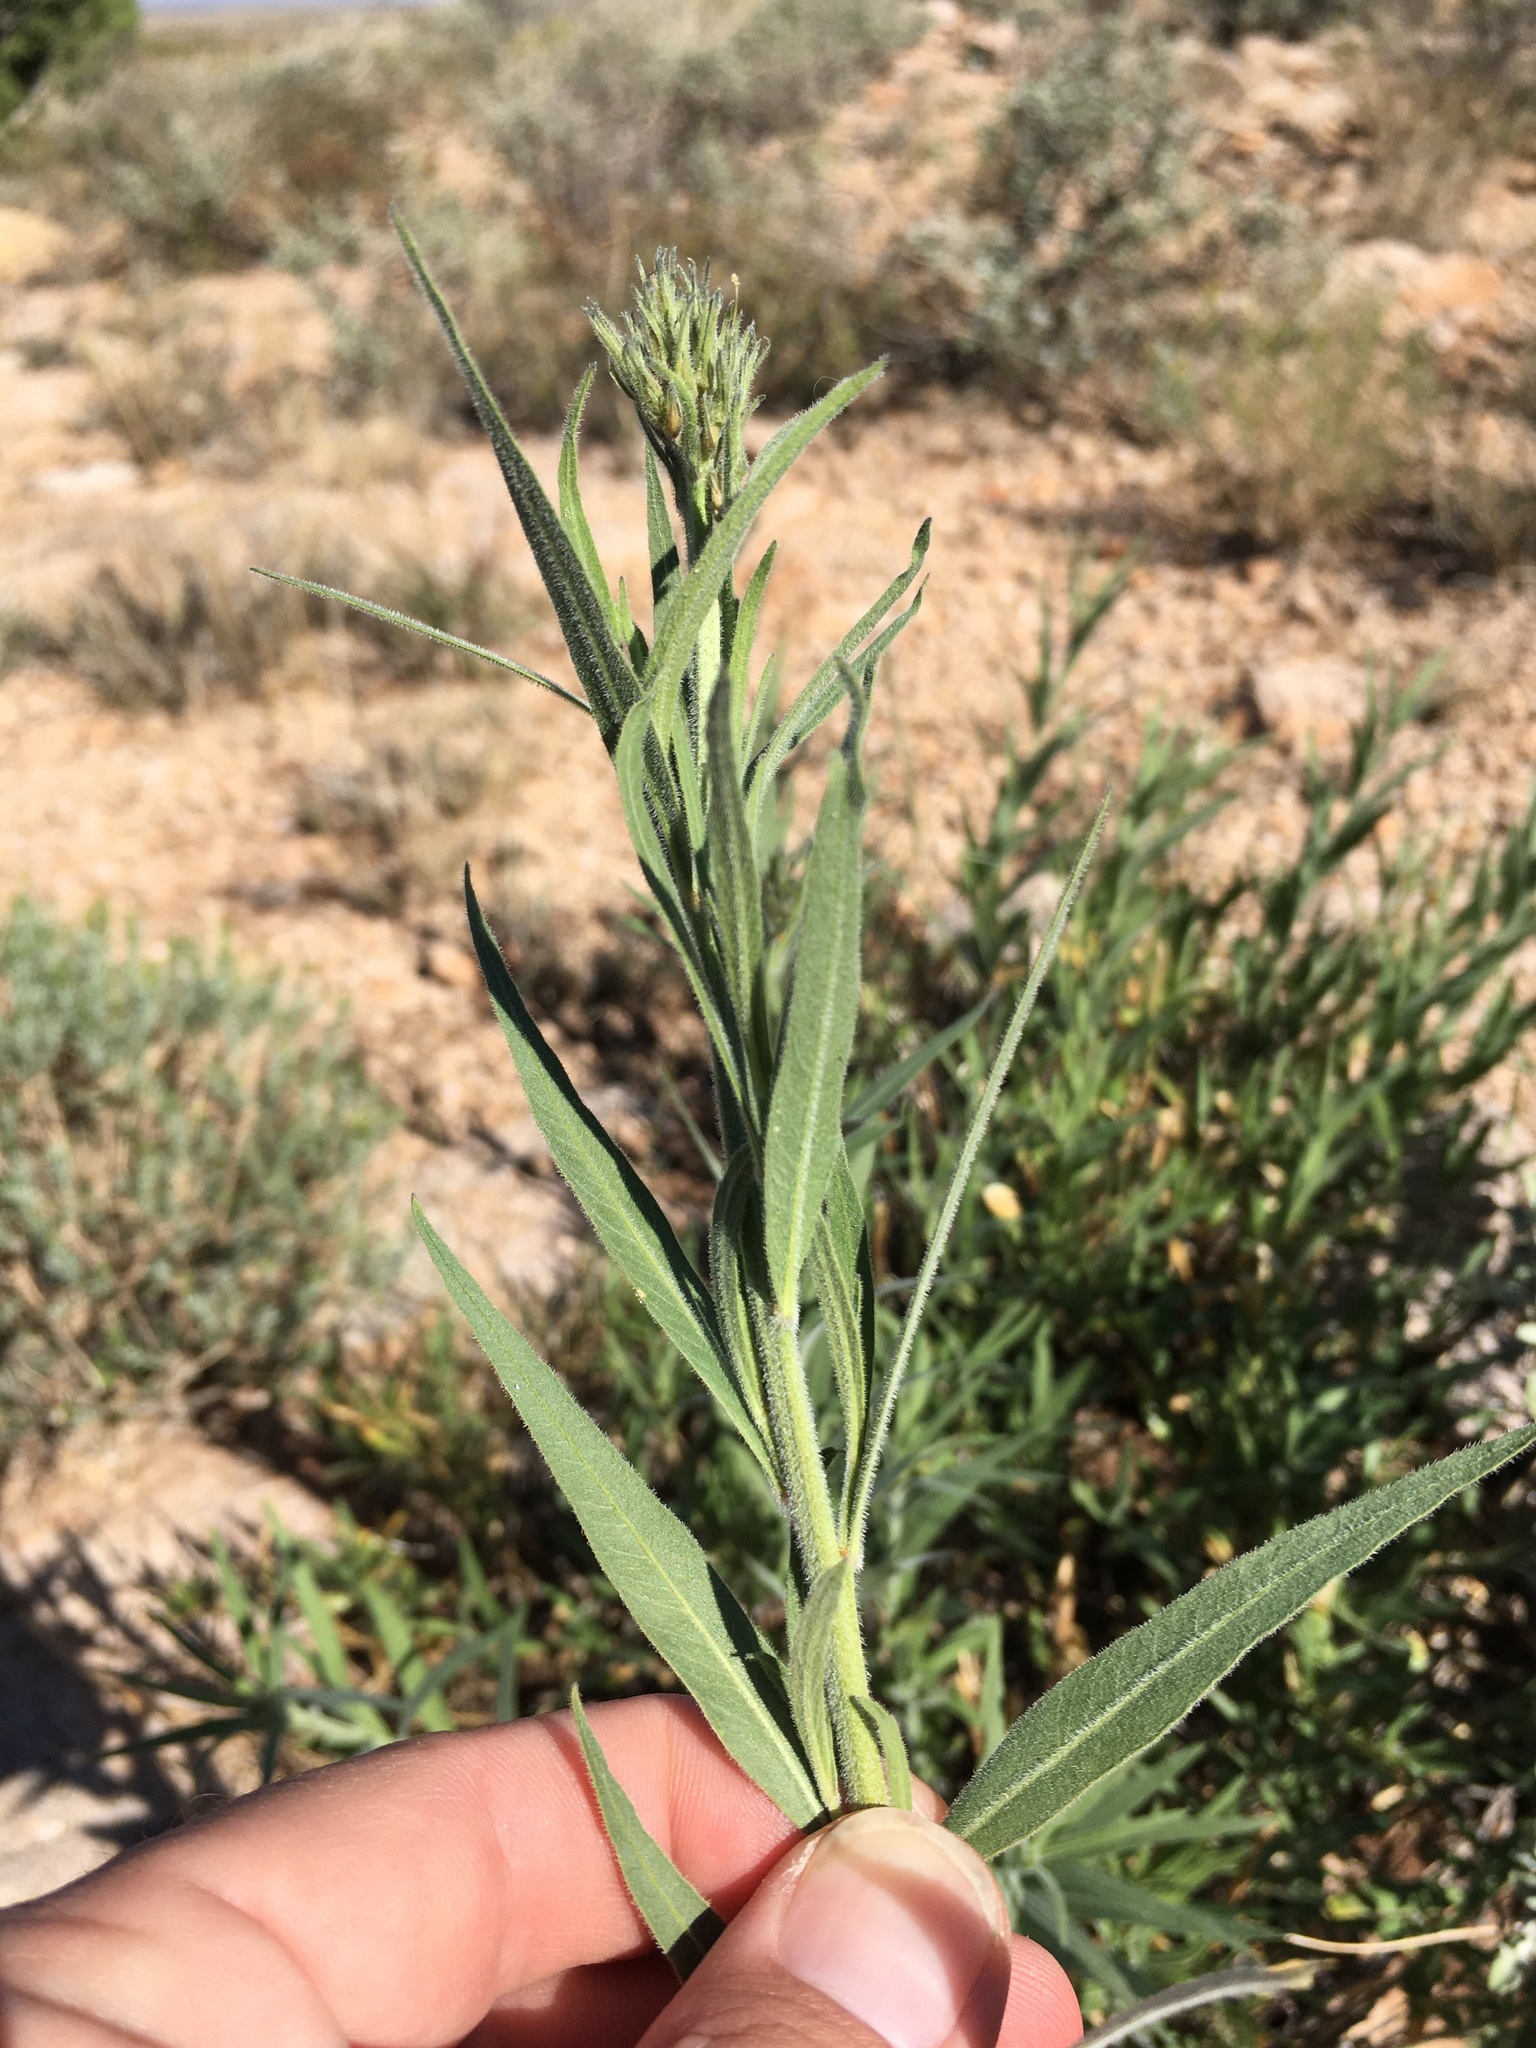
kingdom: Plantae
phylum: Tracheophyta
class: Magnoliopsida
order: Gentianales
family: Apocynaceae
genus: Amsonia
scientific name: Amsonia palmeri
